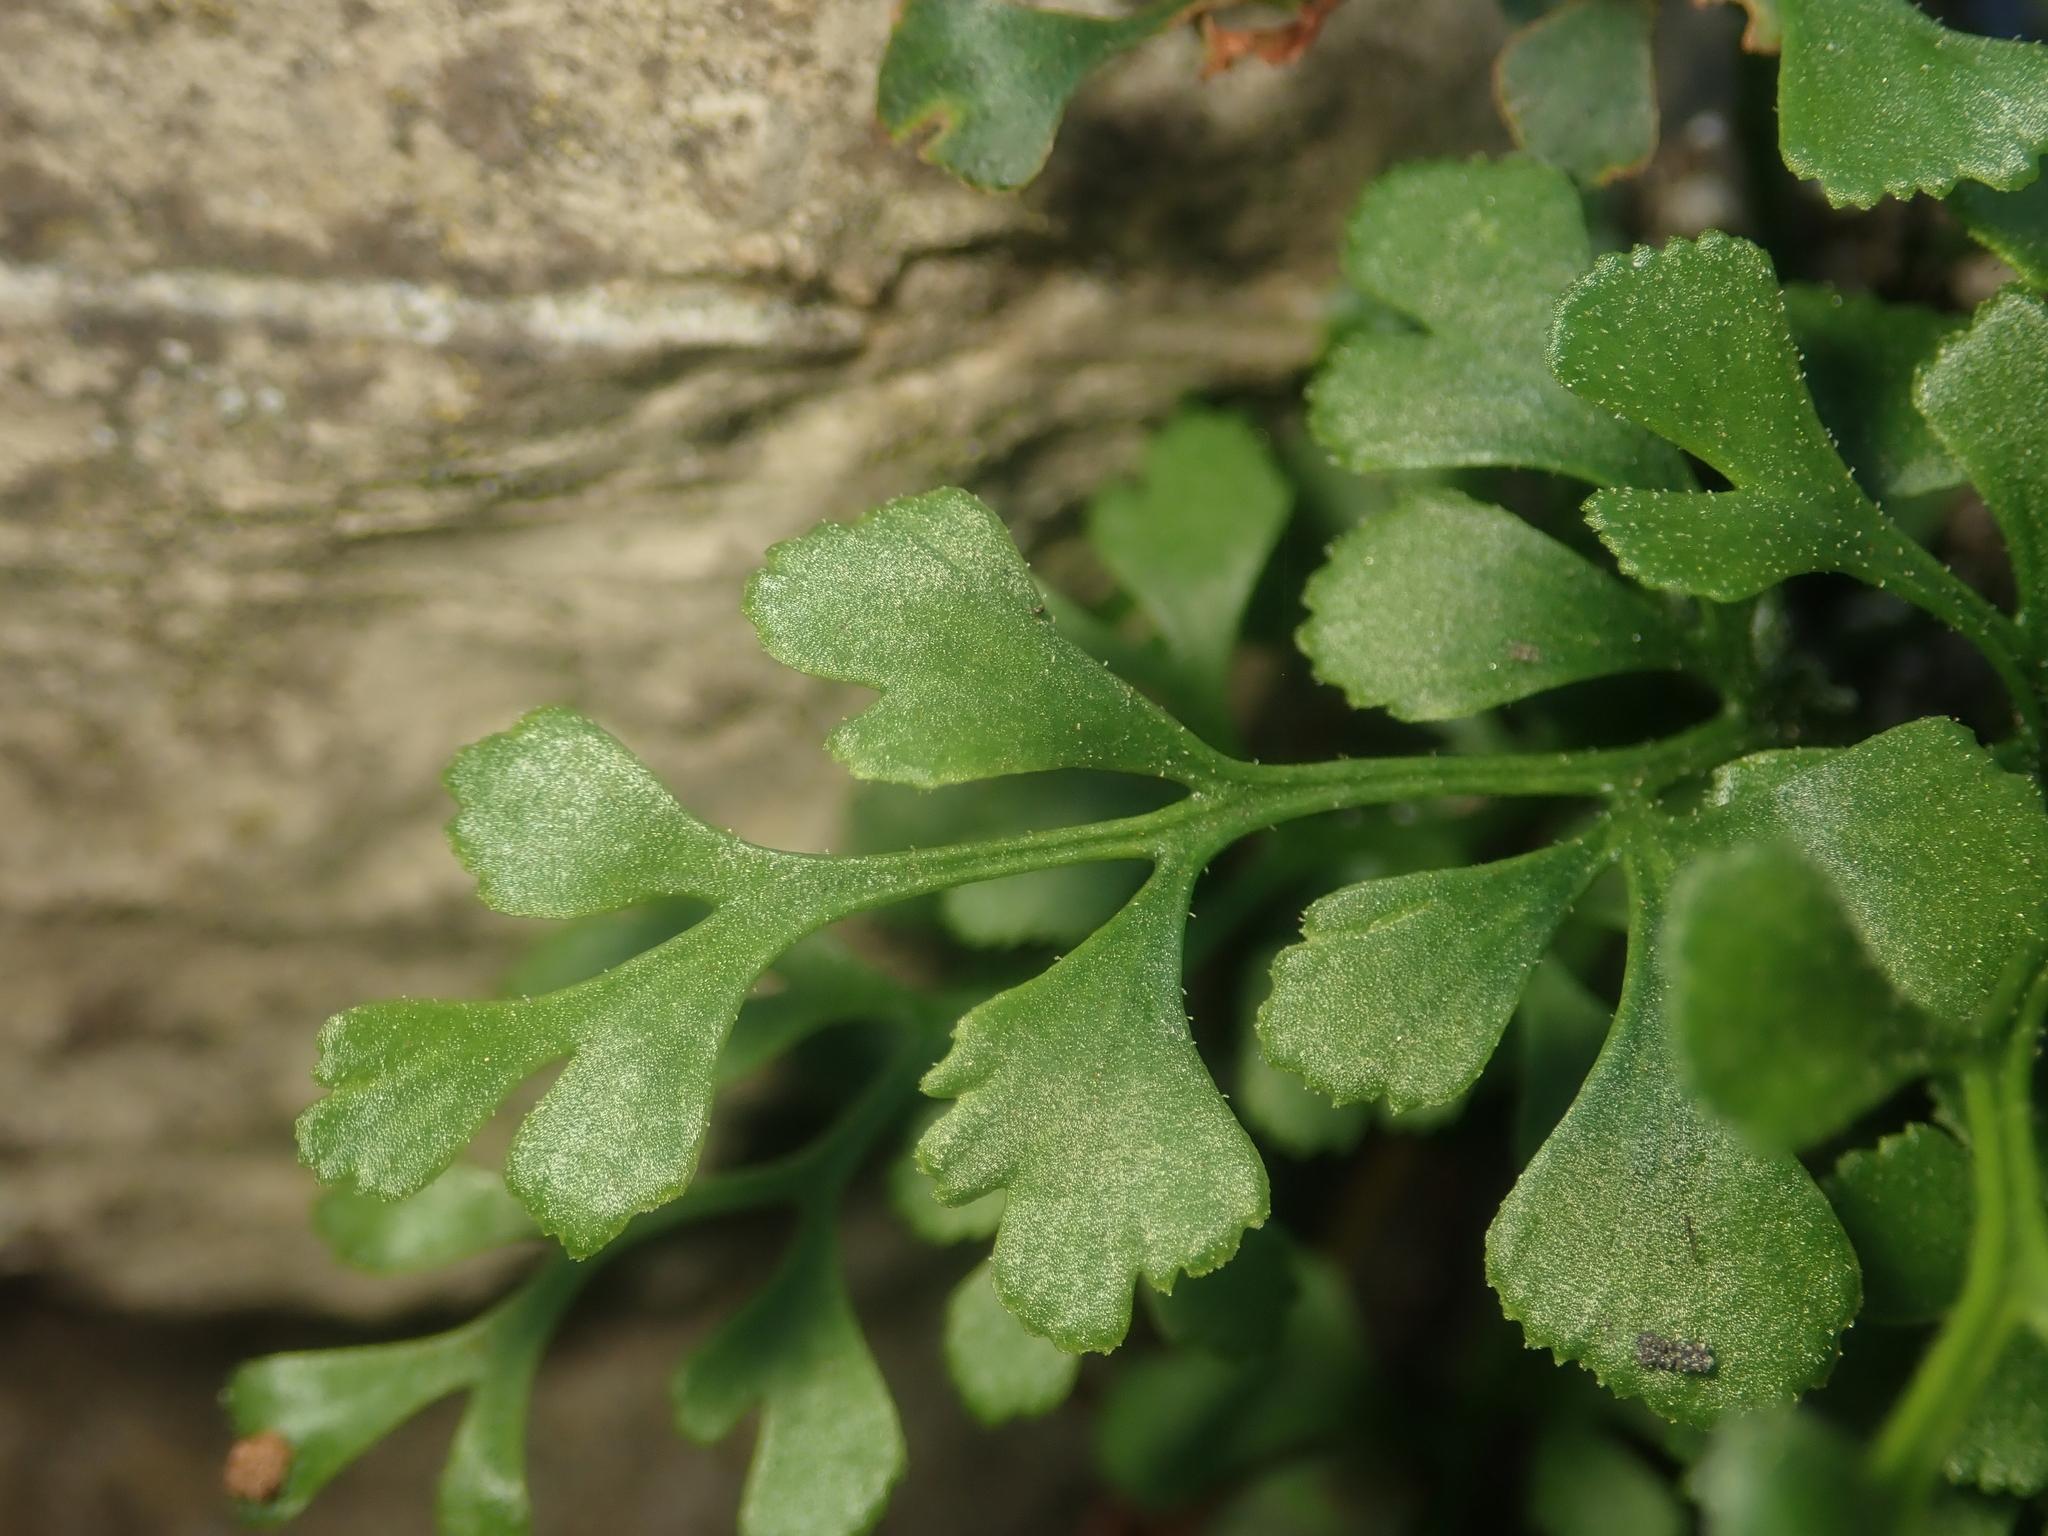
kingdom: Plantae
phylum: Tracheophyta
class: Polypodiopsida
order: Polypodiales
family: Aspleniaceae
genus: Asplenium
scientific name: Asplenium ruta-muraria
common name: Wall-rue
